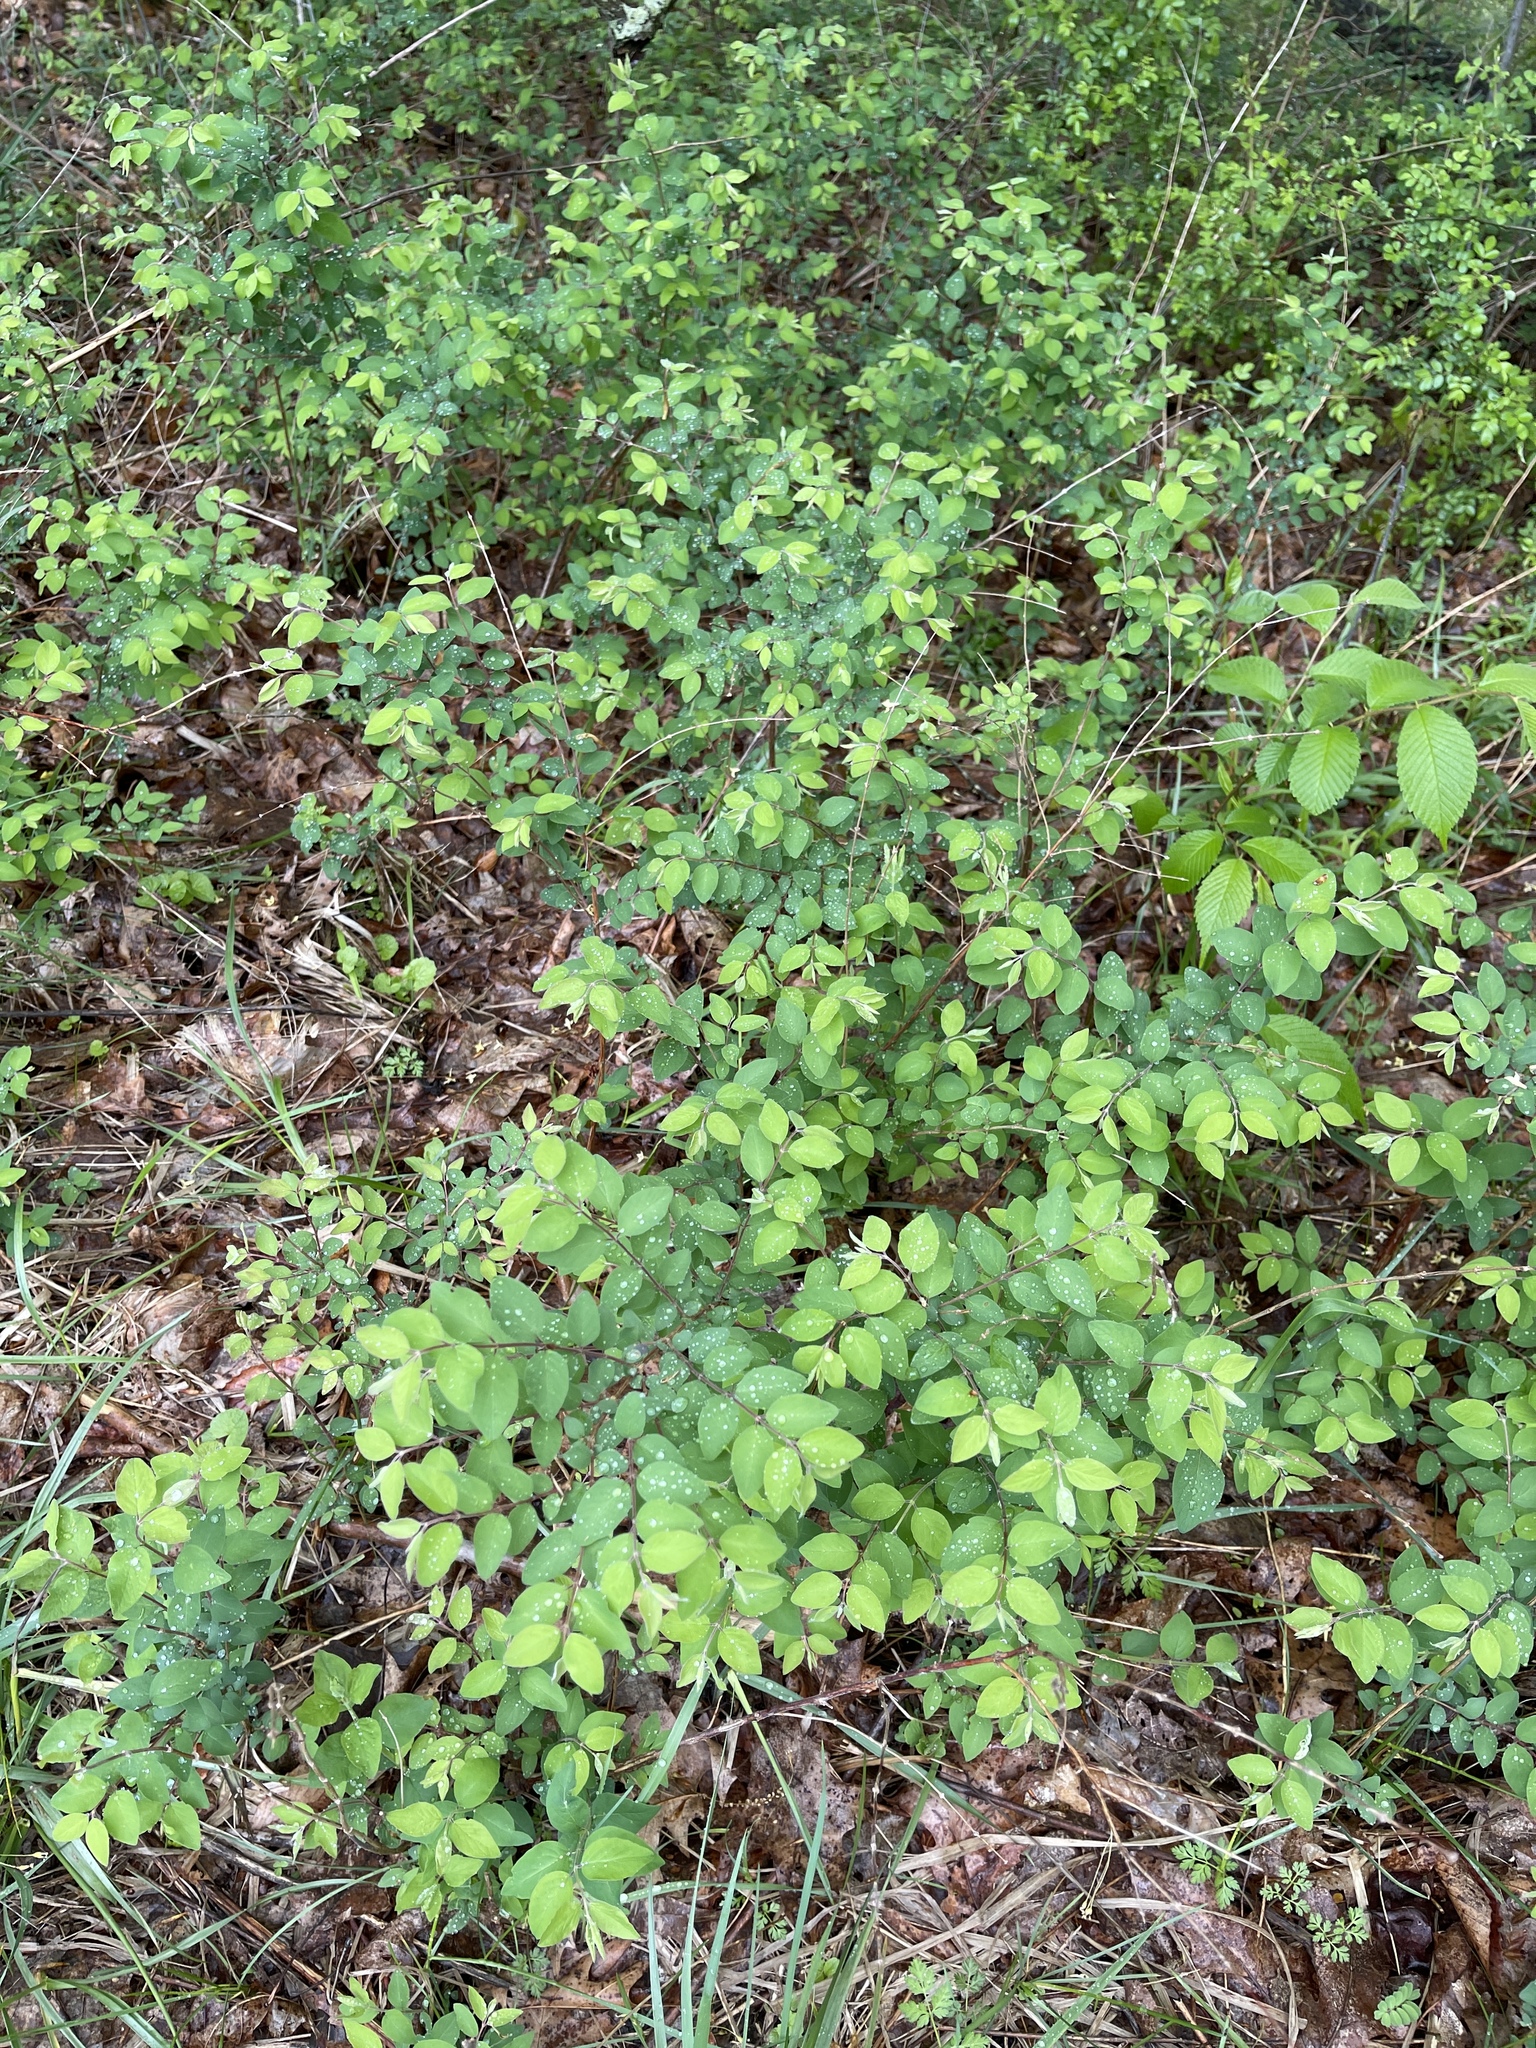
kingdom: Plantae
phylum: Tracheophyta
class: Magnoliopsida
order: Dipsacales
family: Caprifoliaceae
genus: Symphoricarpos
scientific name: Symphoricarpos orbiculatus
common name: Coralberry
